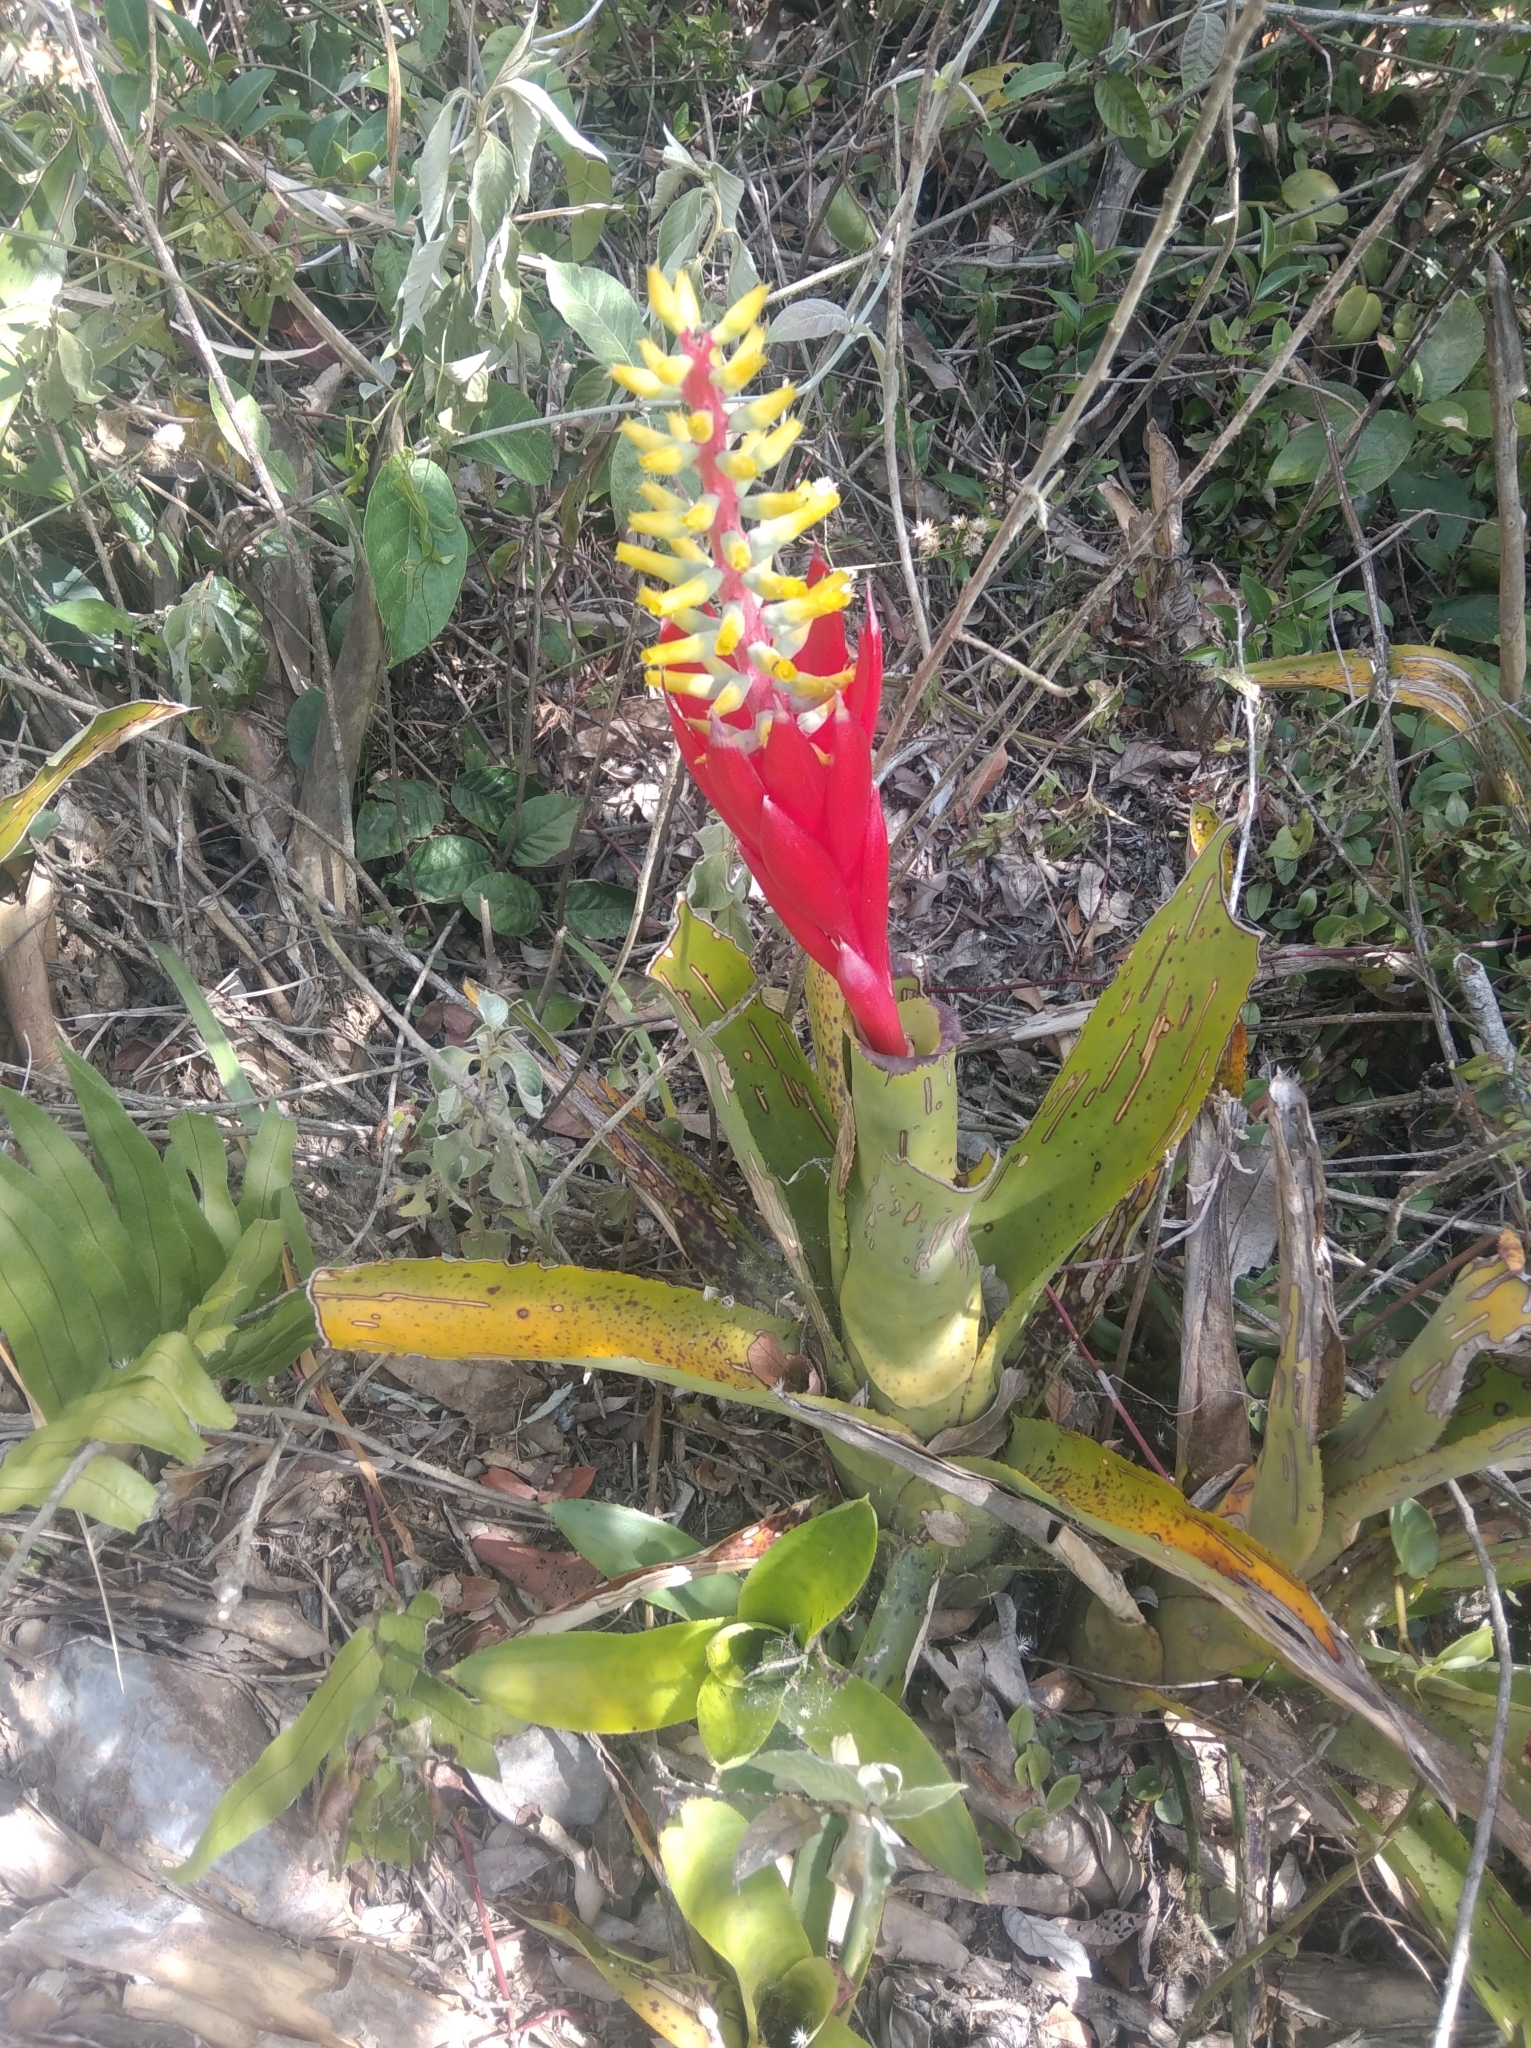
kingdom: Plantae
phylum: Tracheophyta
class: Liliopsida
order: Poales
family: Bromeliaceae
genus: Aechmea
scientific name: Aechmea nudicaulis
